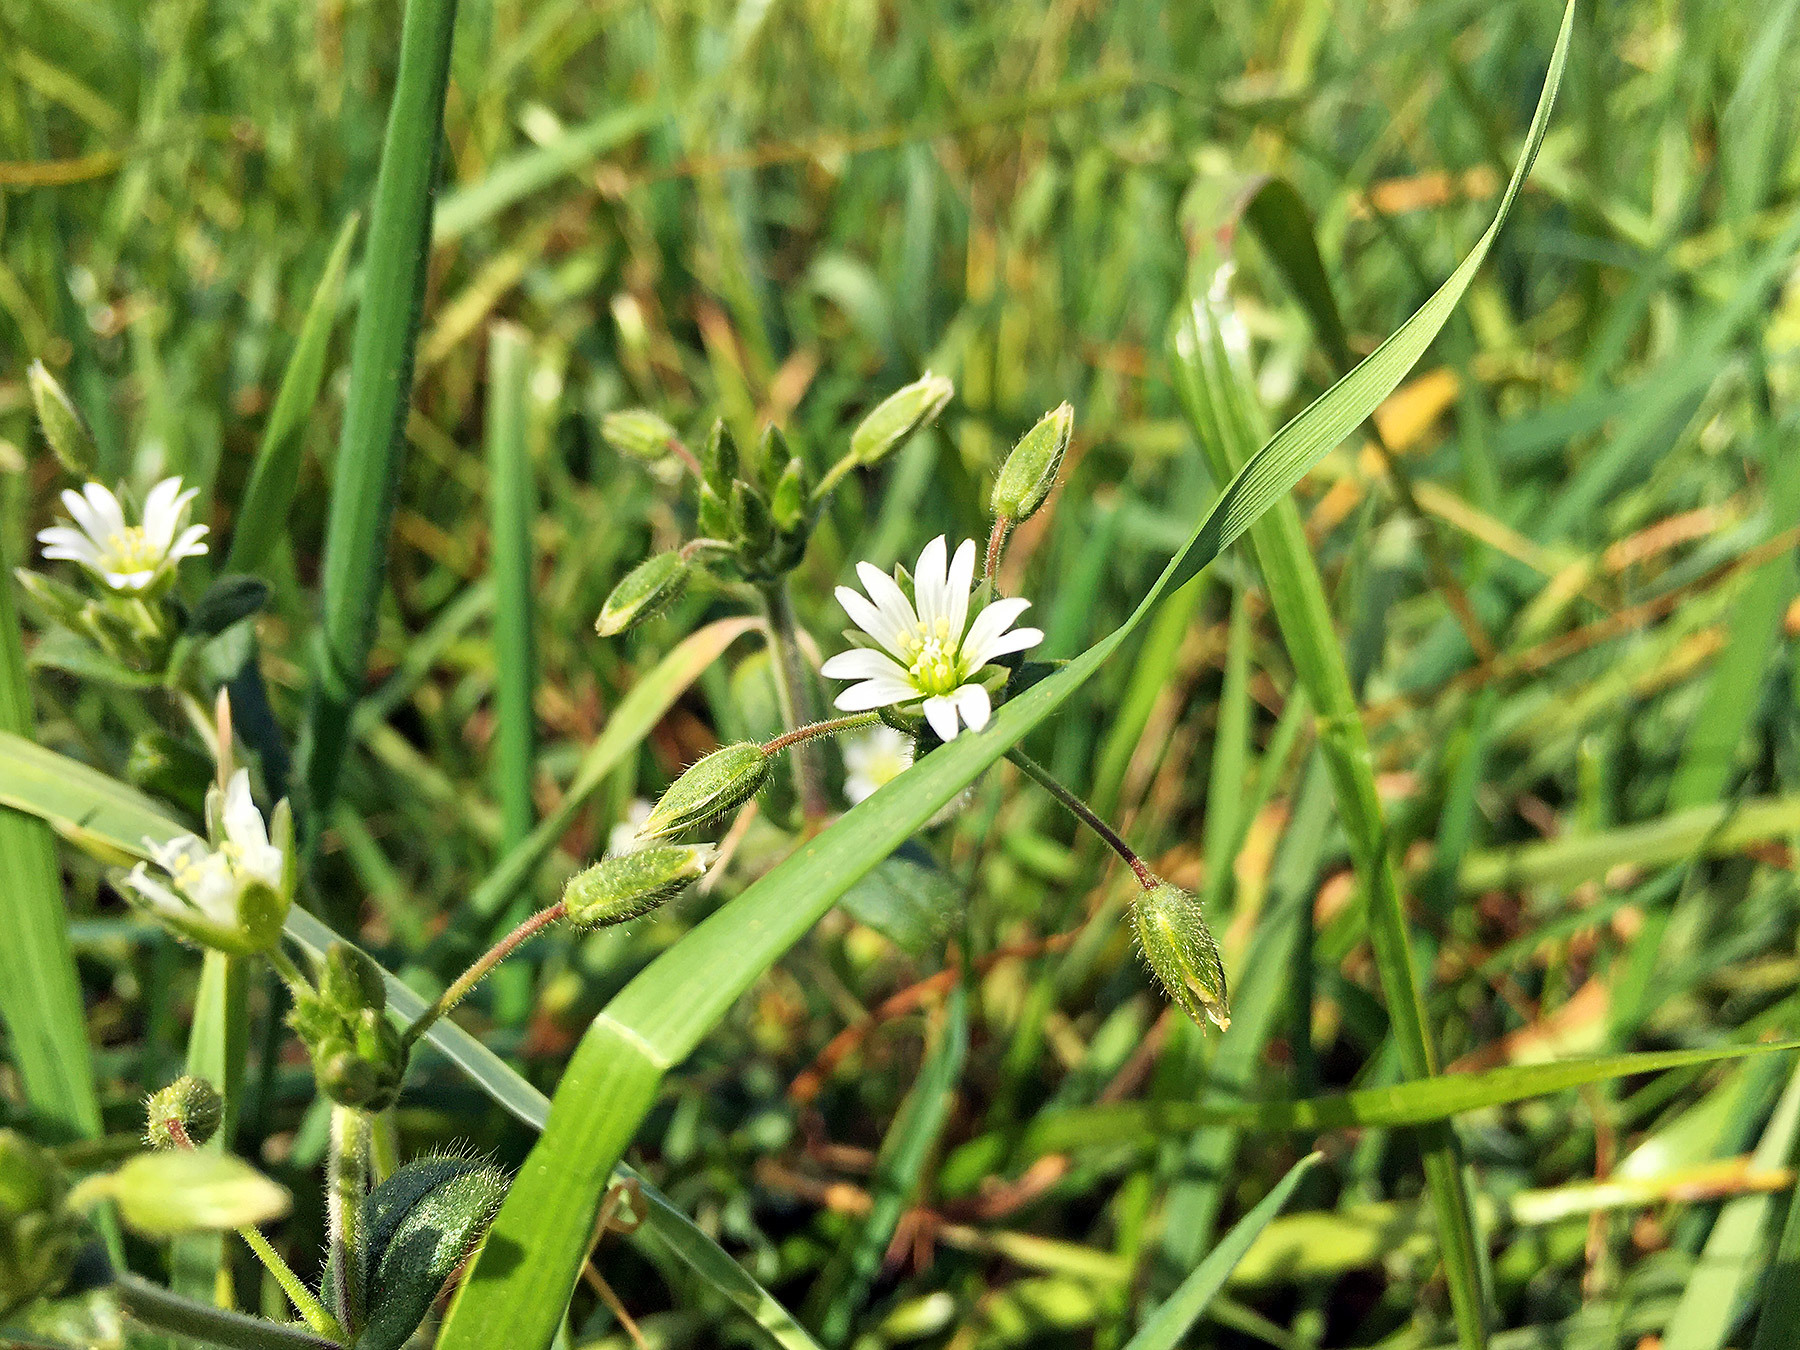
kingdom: Plantae
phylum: Tracheophyta
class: Magnoliopsida
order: Caryophyllales
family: Caryophyllaceae
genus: Cerastium
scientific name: Cerastium holosteoides
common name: Big chickweed
